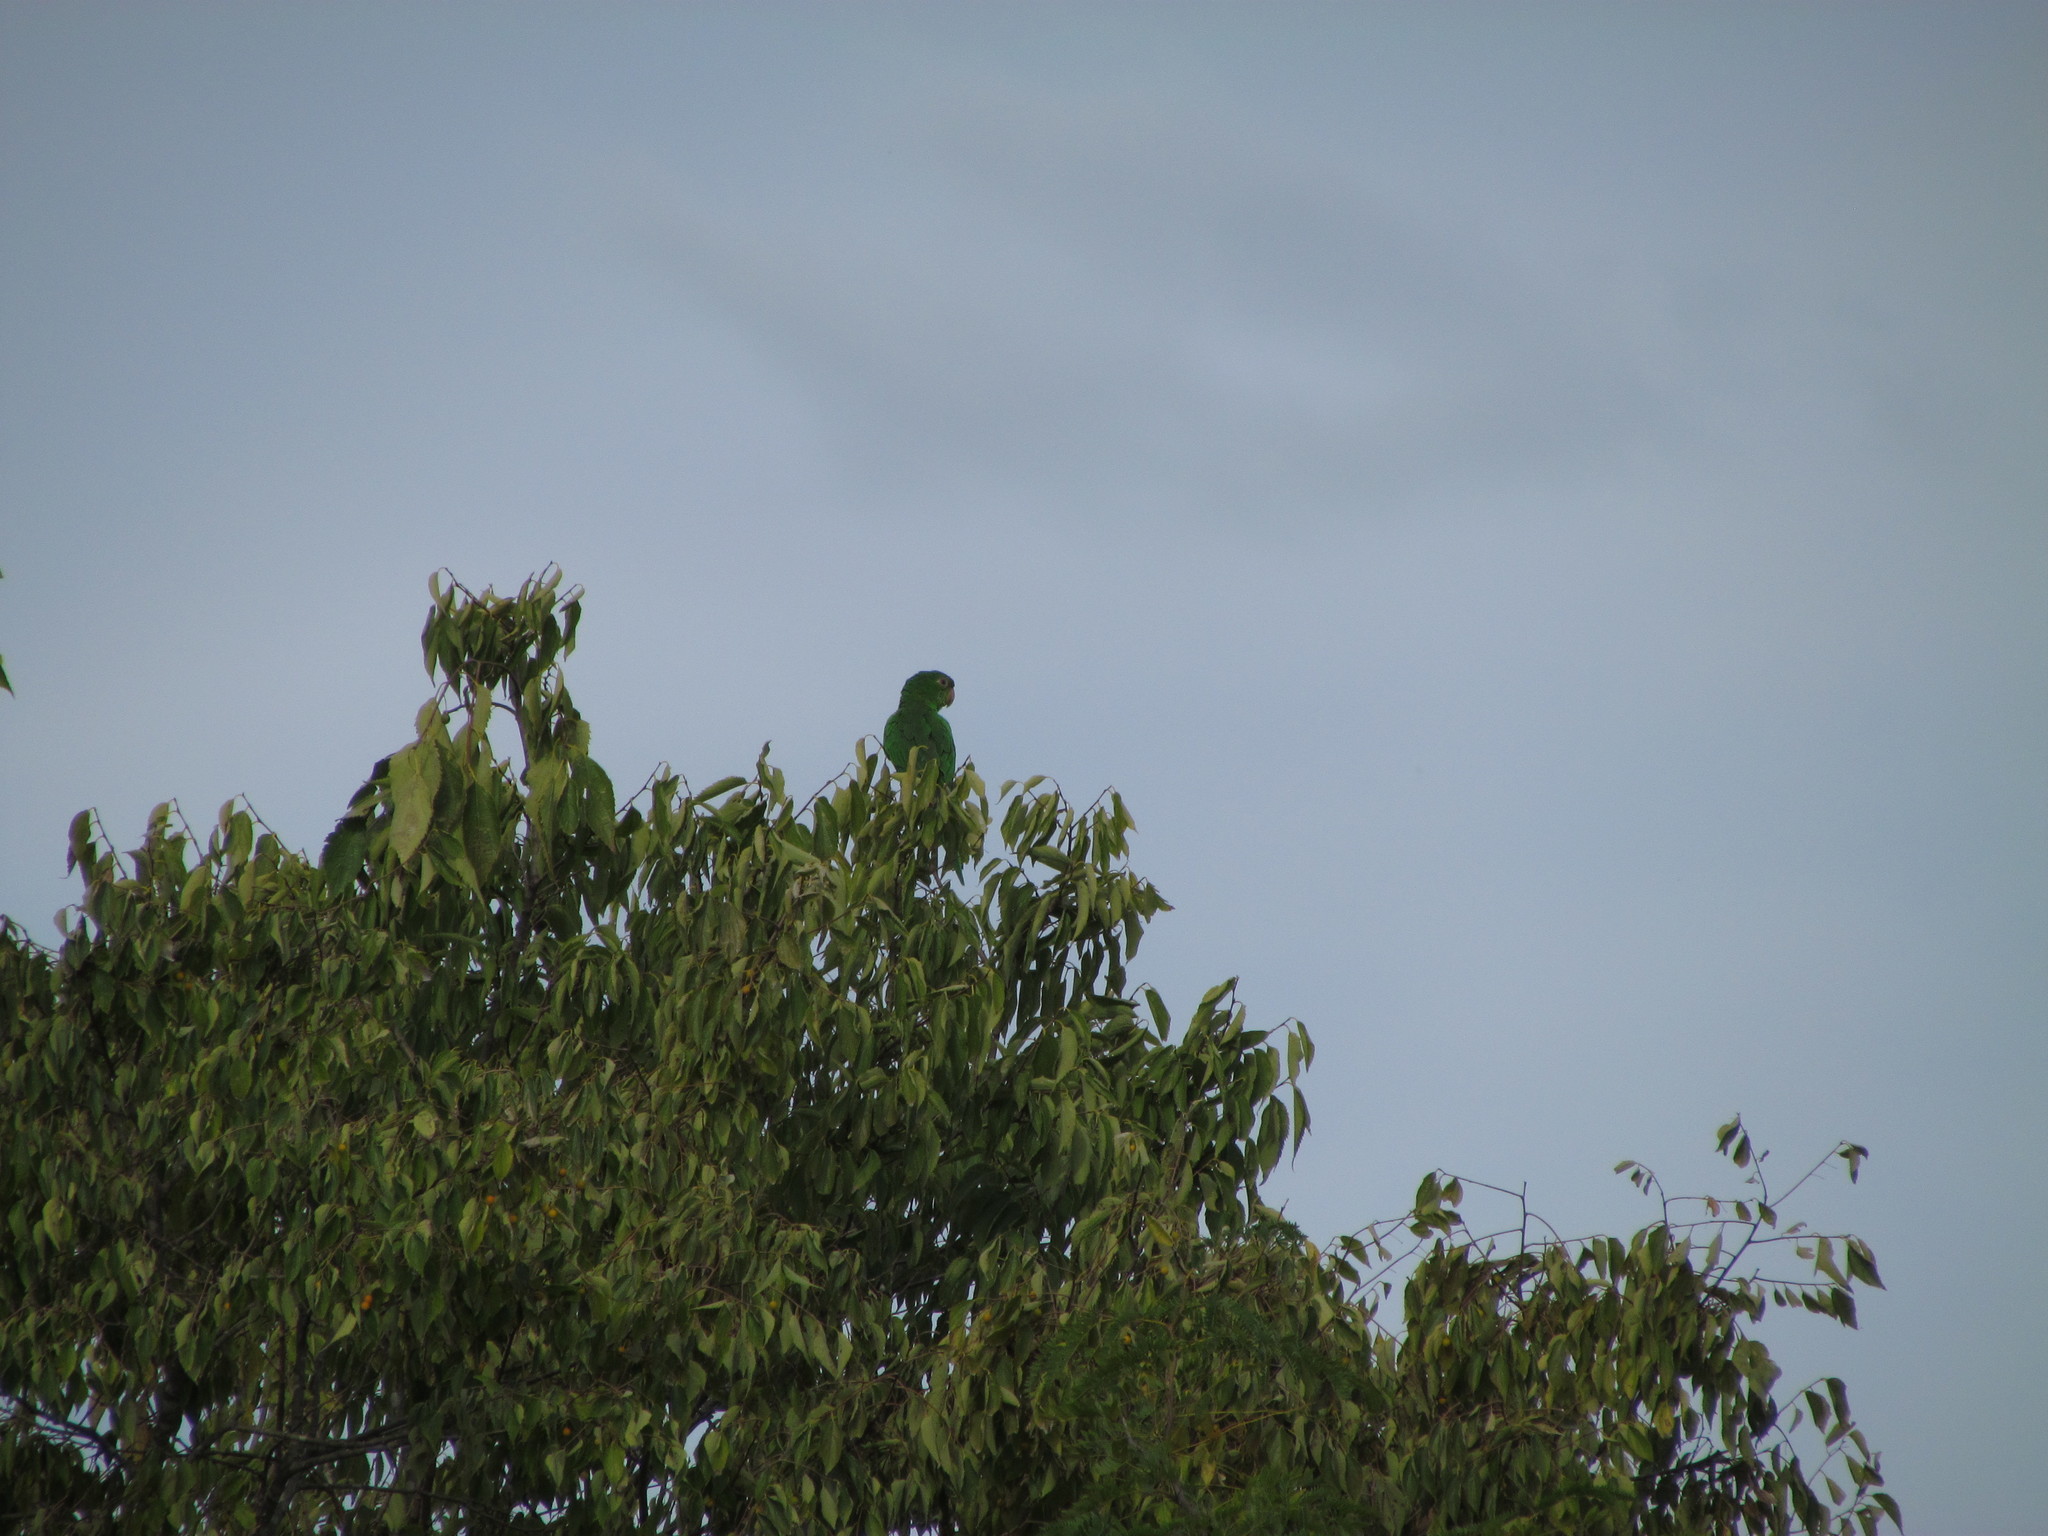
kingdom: Animalia
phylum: Chordata
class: Aves
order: Psittaciformes
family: Psittacidae
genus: Aratinga
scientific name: Aratinga leucophthalma
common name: White-eyed parakeet
